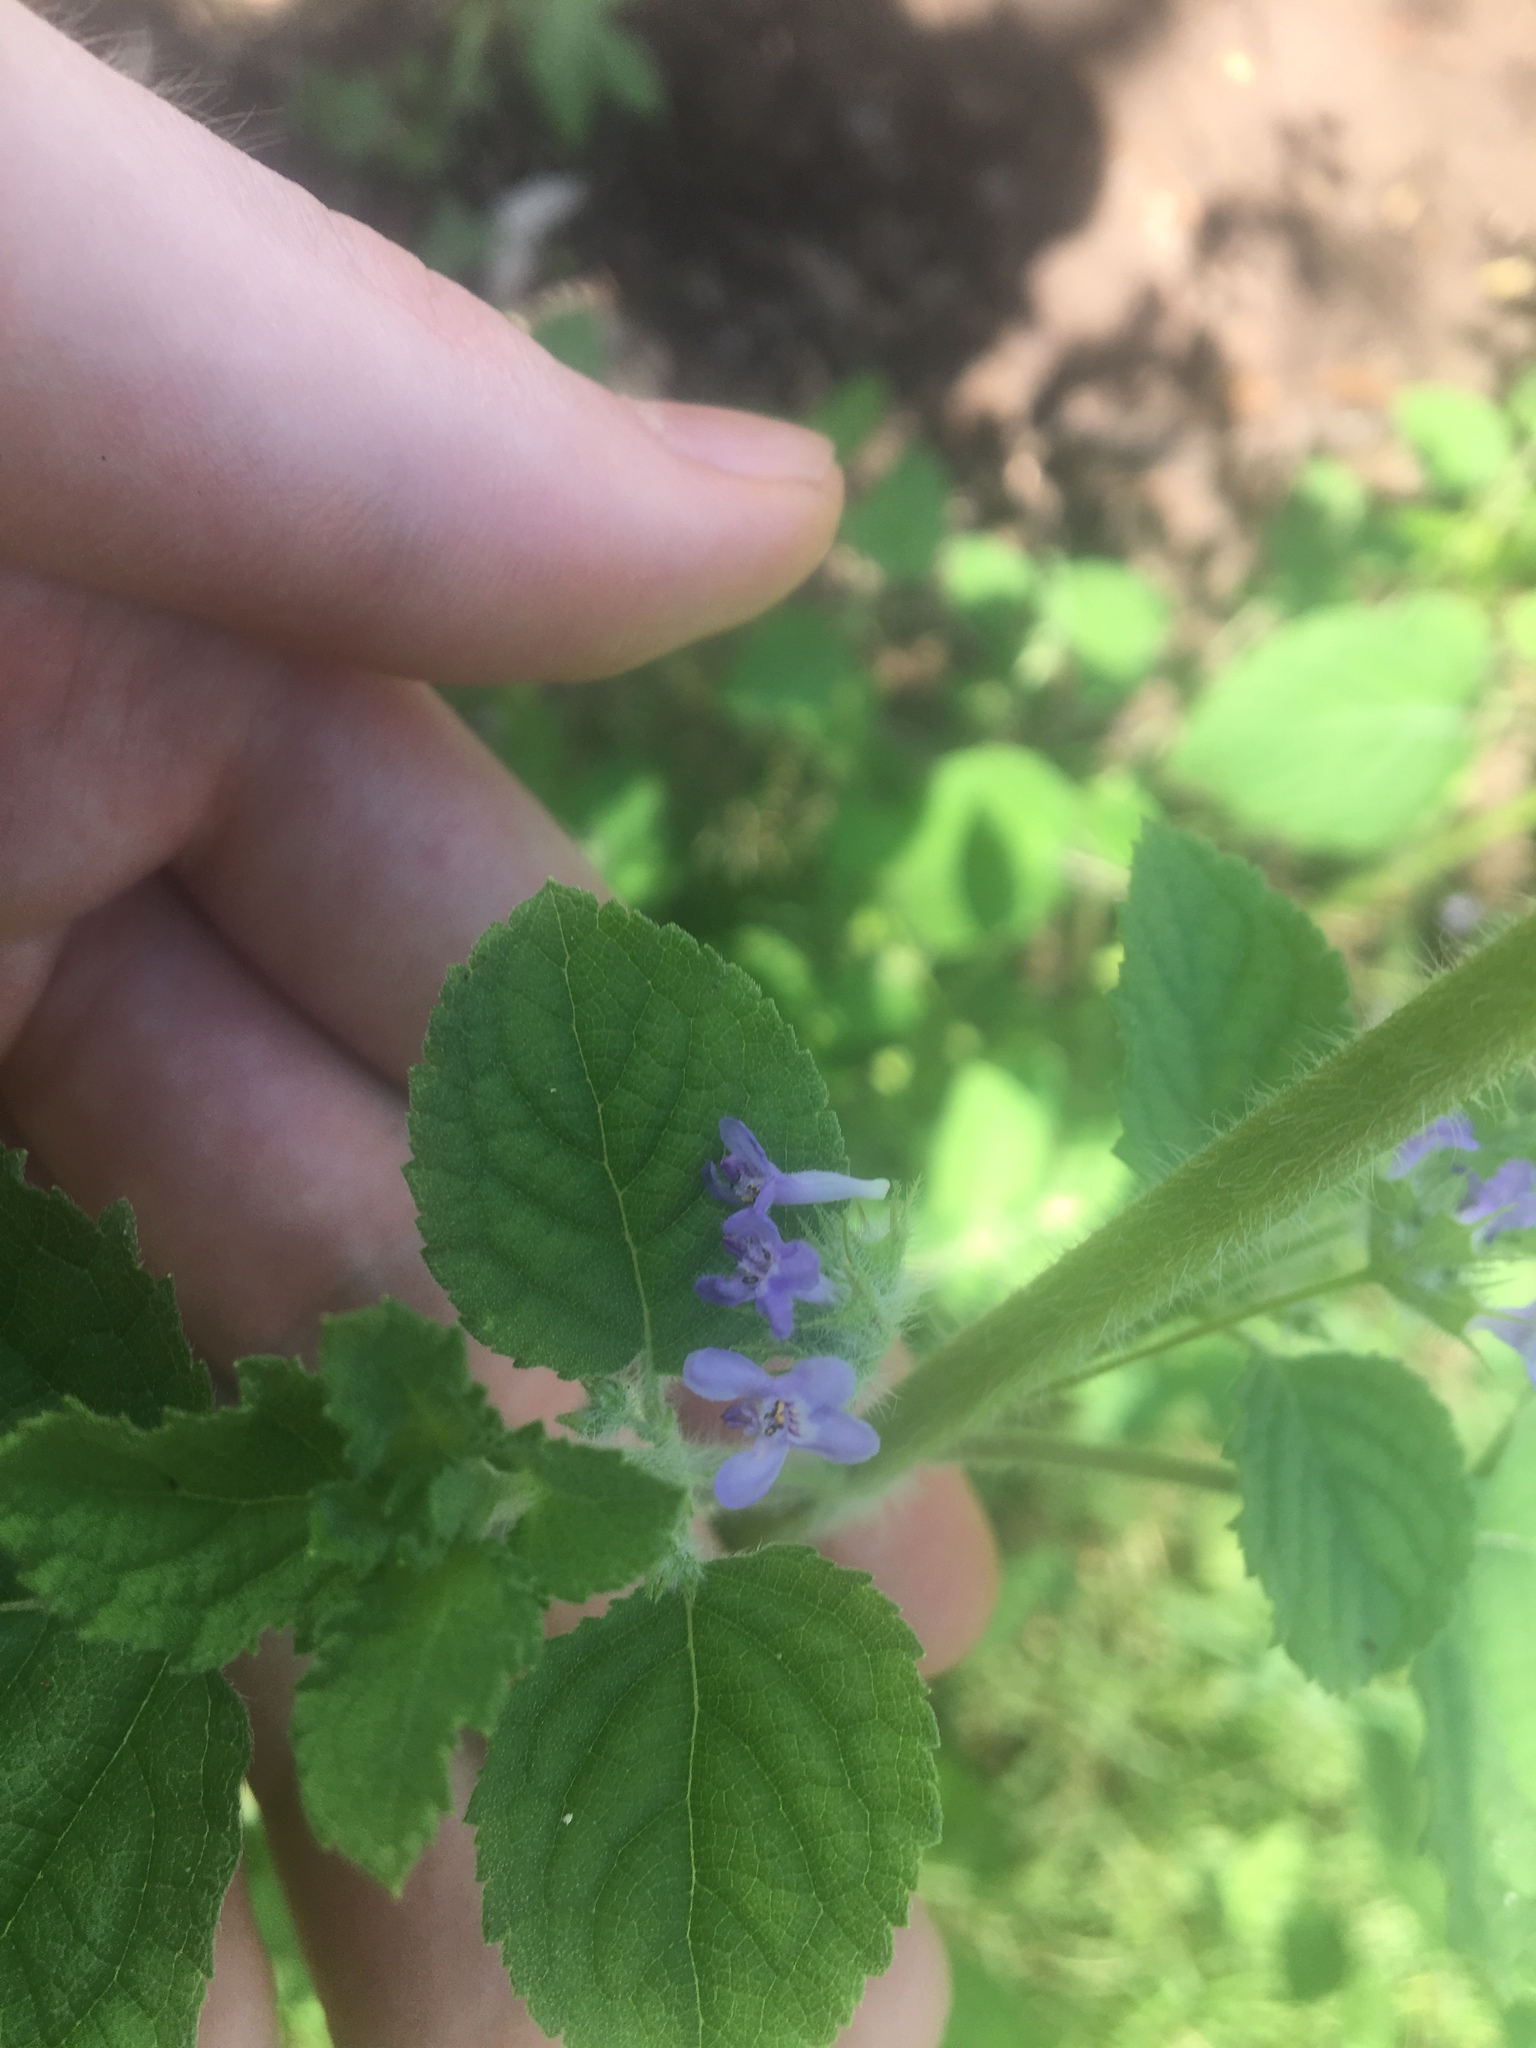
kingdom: Plantae
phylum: Tracheophyta
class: Magnoliopsida
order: Lamiales
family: Lamiaceae
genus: Mesosphaerum
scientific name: Mesosphaerum suaveolens
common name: Pignut
